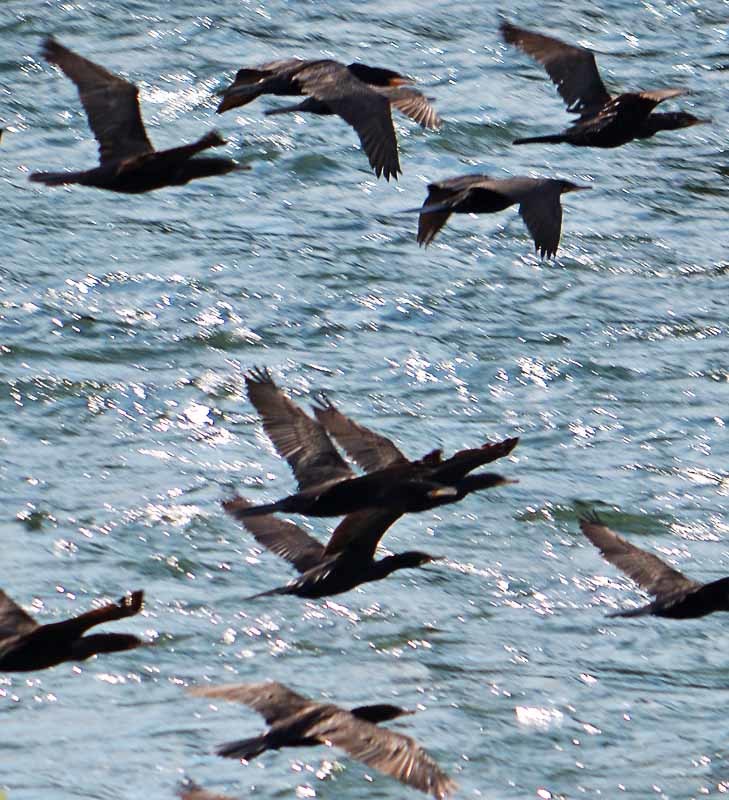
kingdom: Animalia
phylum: Chordata
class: Aves
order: Suliformes
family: Phalacrocoracidae
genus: Phalacrocorax
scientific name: Phalacrocorax brasilianus
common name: Neotropic cormorant
